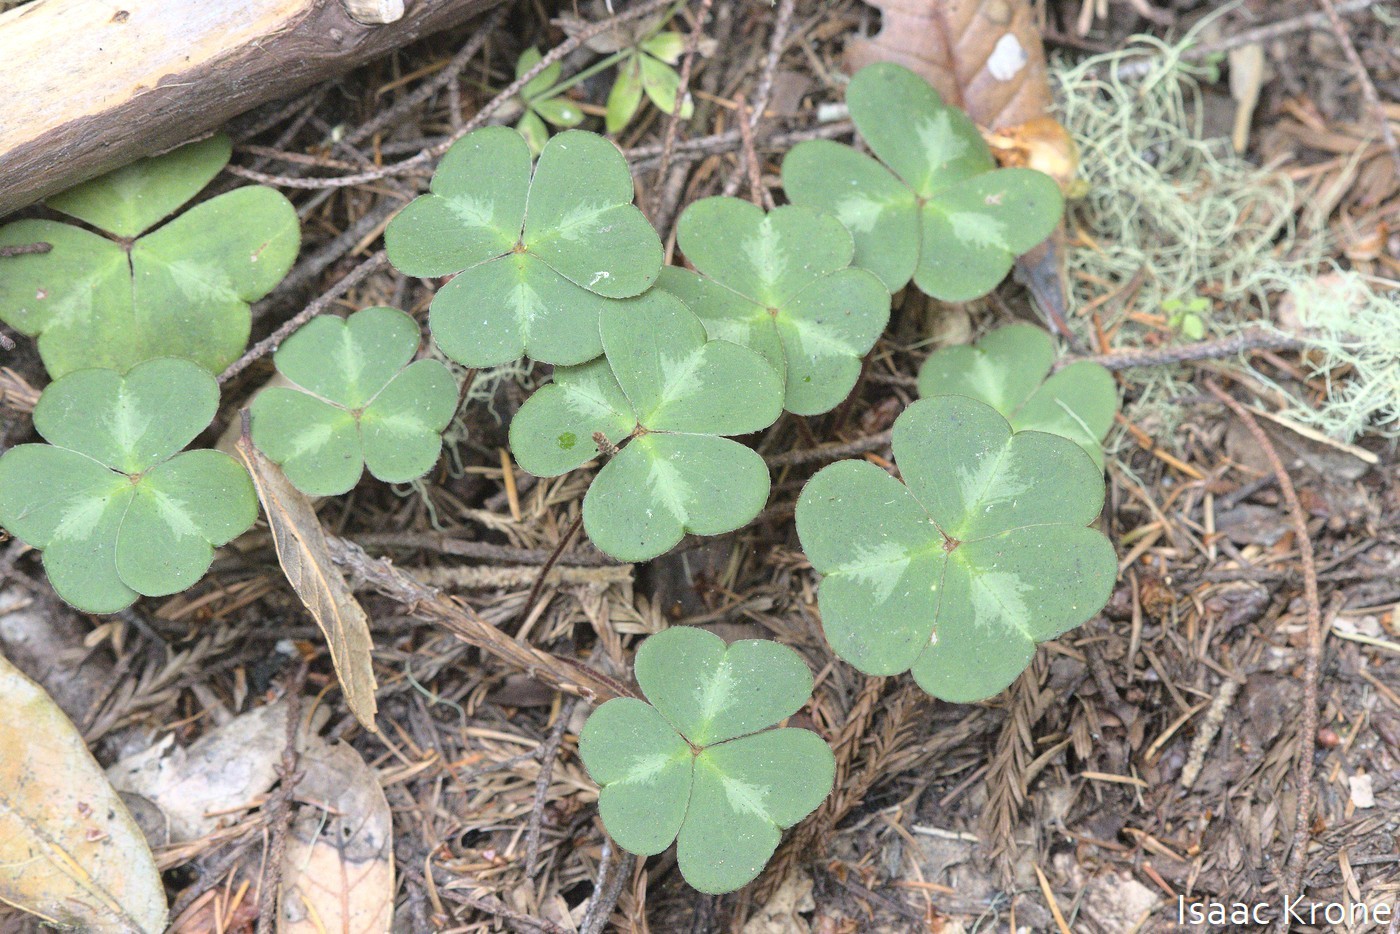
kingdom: Plantae
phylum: Tracheophyta
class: Magnoliopsida
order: Oxalidales
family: Oxalidaceae
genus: Oxalis
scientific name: Oxalis oregana
